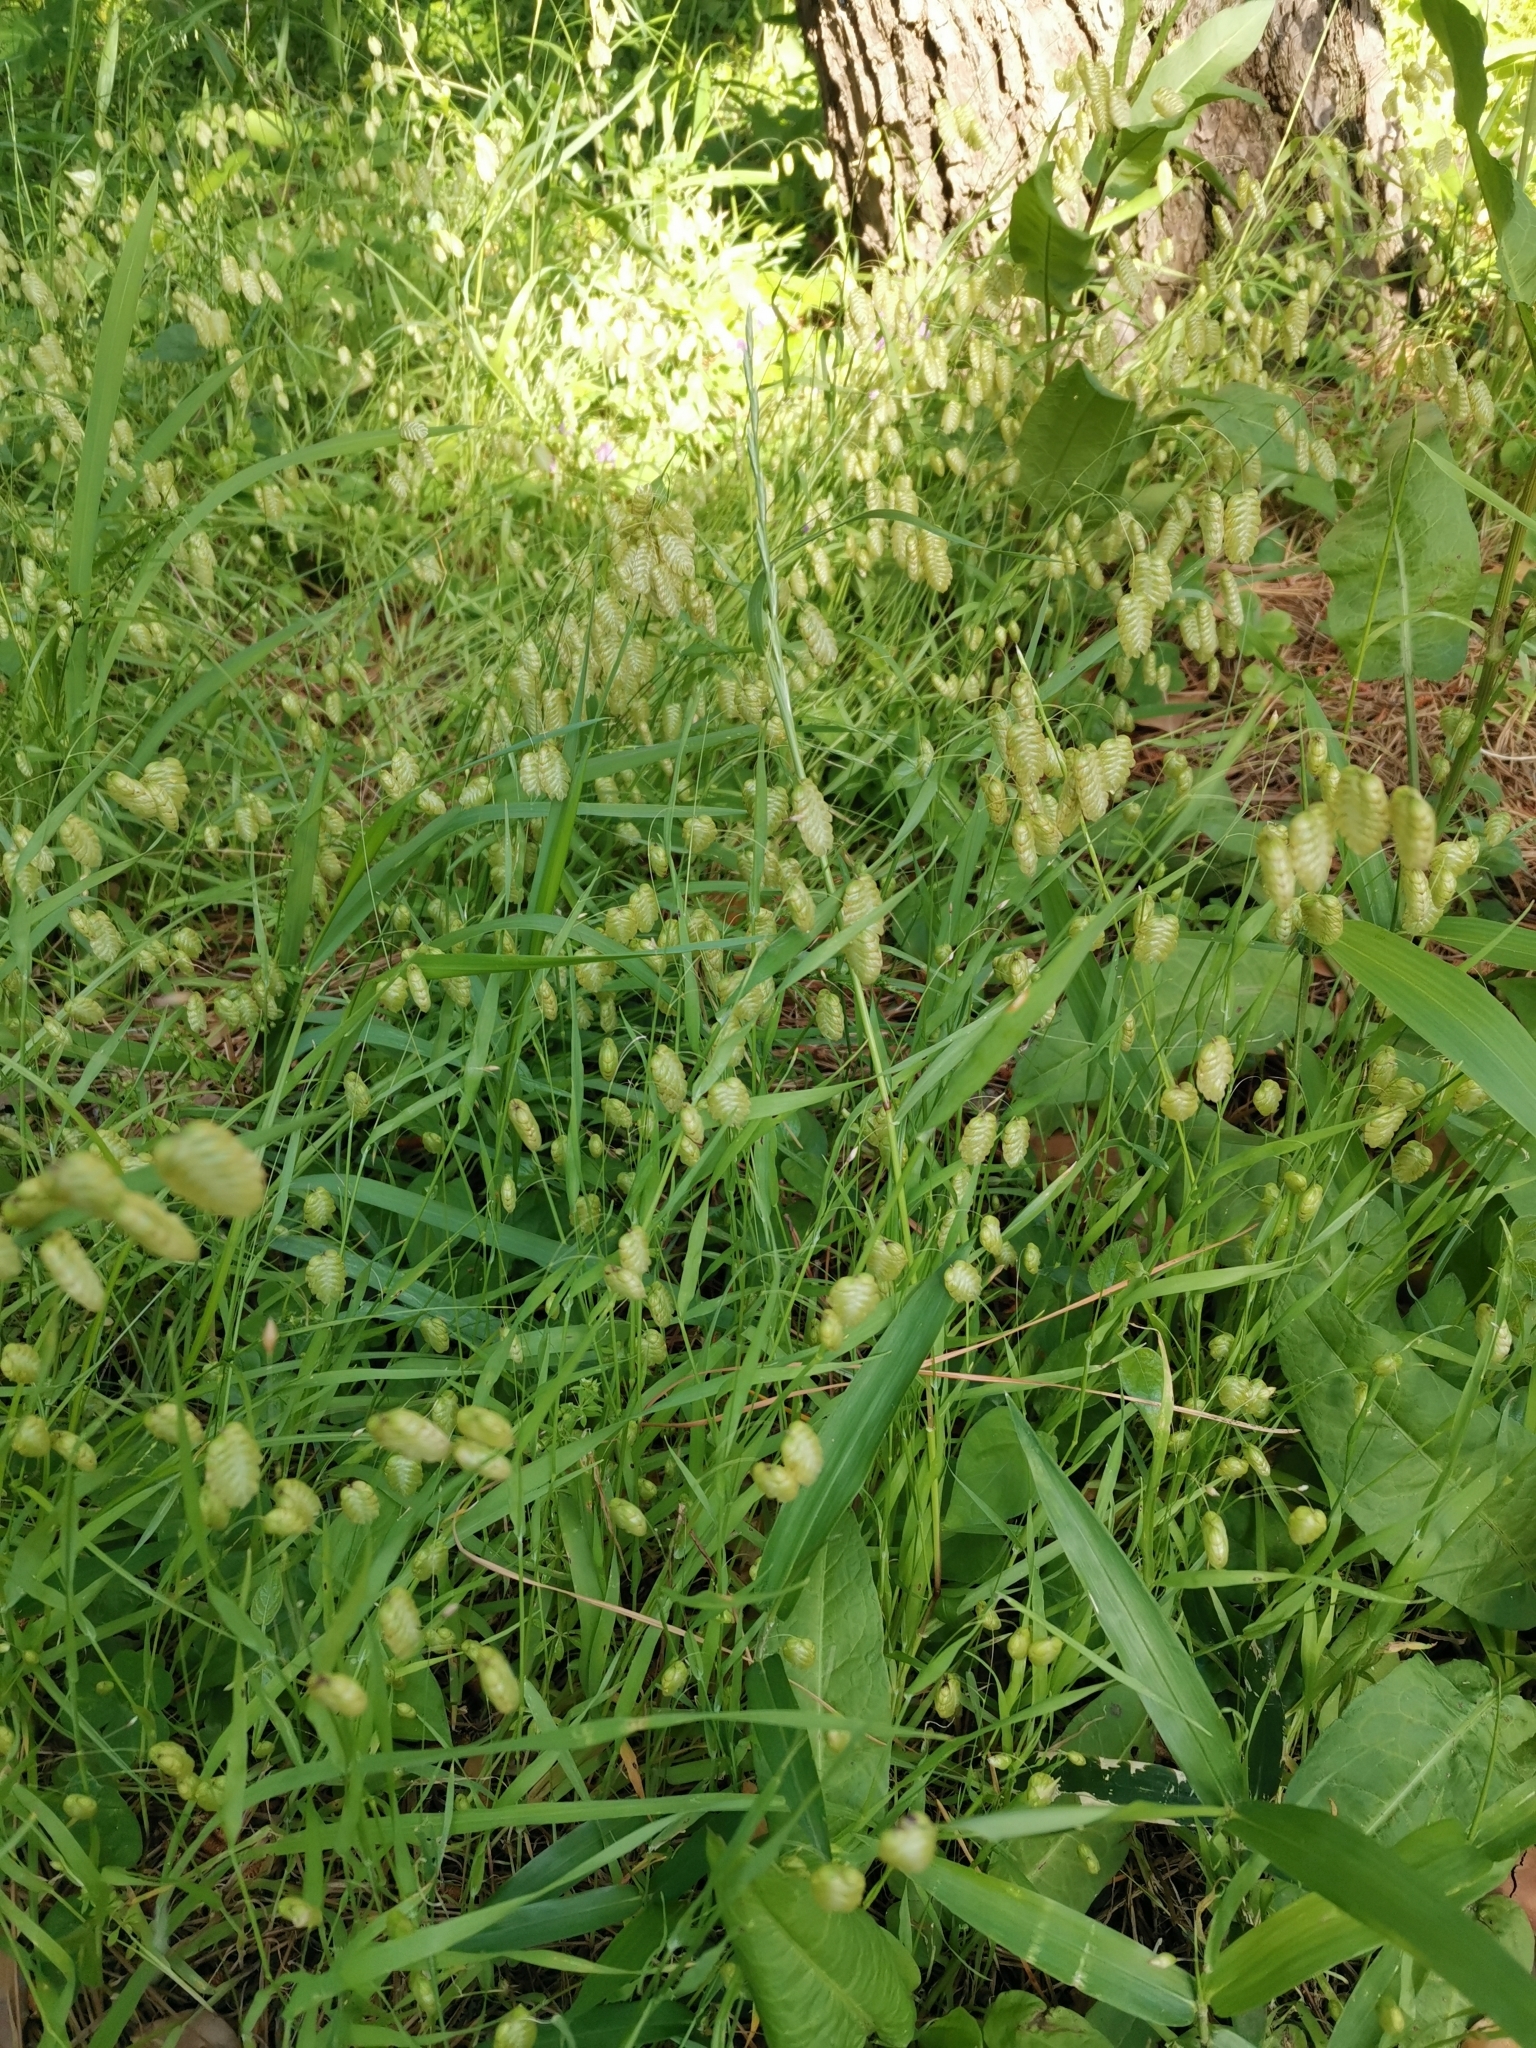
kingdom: Plantae
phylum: Tracheophyta
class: Liliopsida
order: Poales
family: Poaceae
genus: Briza
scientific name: Briza maxima
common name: Big quakinggrass
